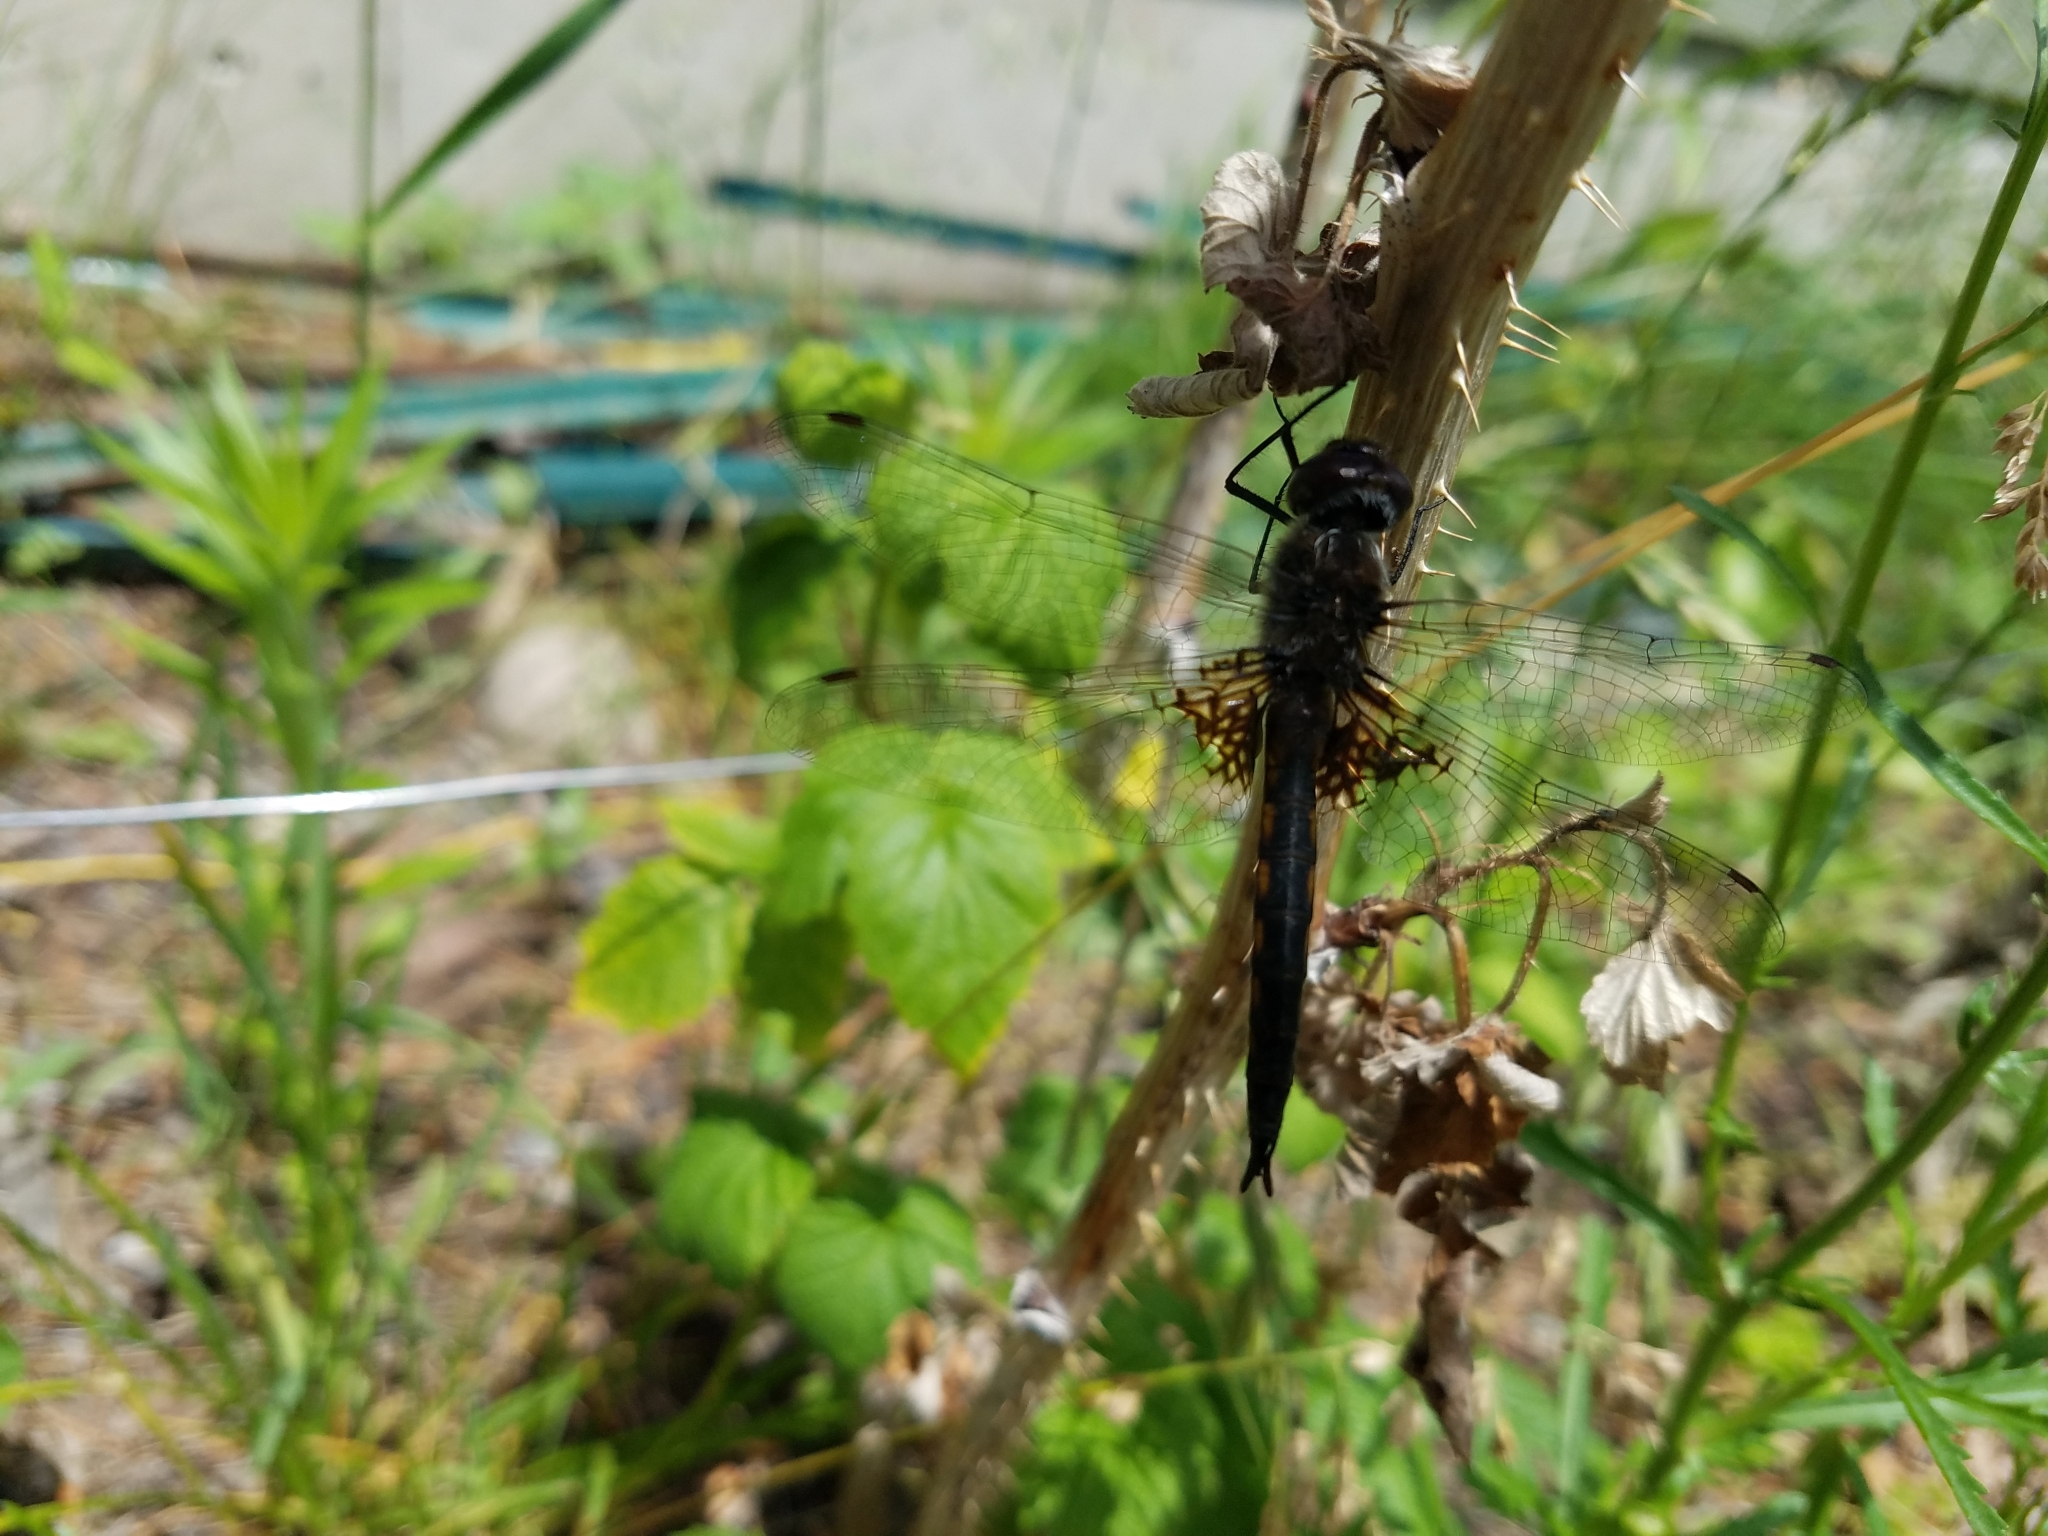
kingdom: Animalia
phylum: Arthropoda
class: Insecta
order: Odonata
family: Corduliidae
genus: Epitheca
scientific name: Epitheca cynosura
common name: Common baskettail
